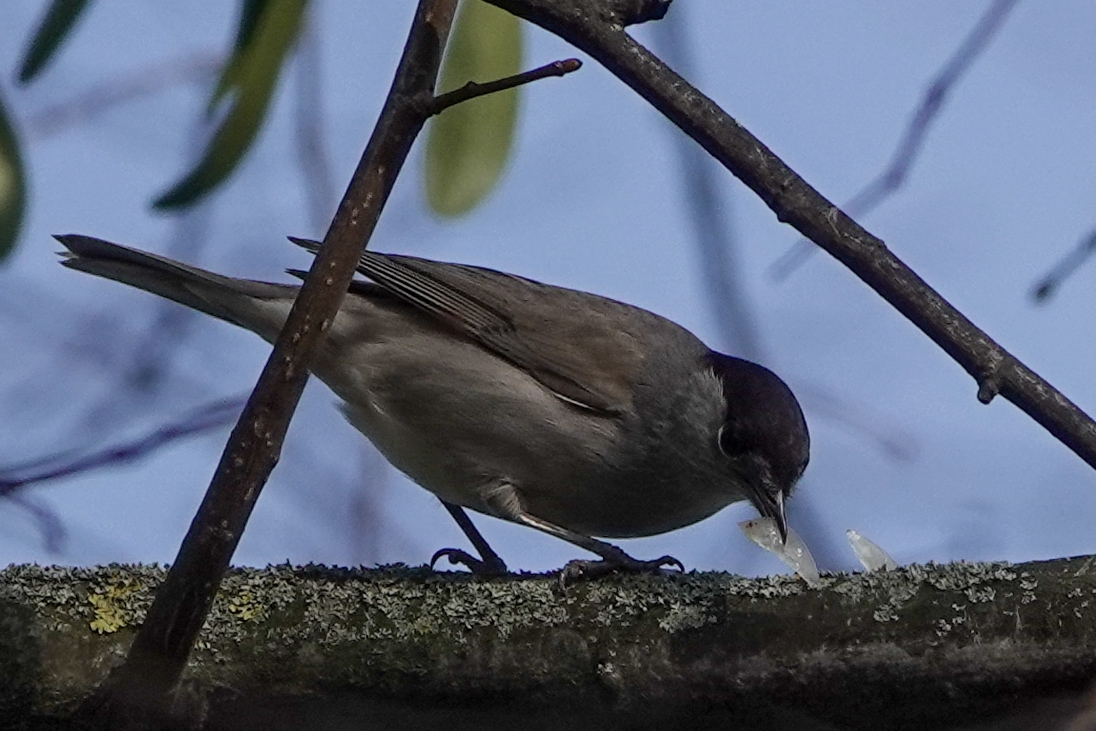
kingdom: Animalia
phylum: Chordata
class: Aves
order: Passeriformes
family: Sylviidae
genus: Sylvia
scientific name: Sylvia atricapilla
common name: Eurasian blackcap
